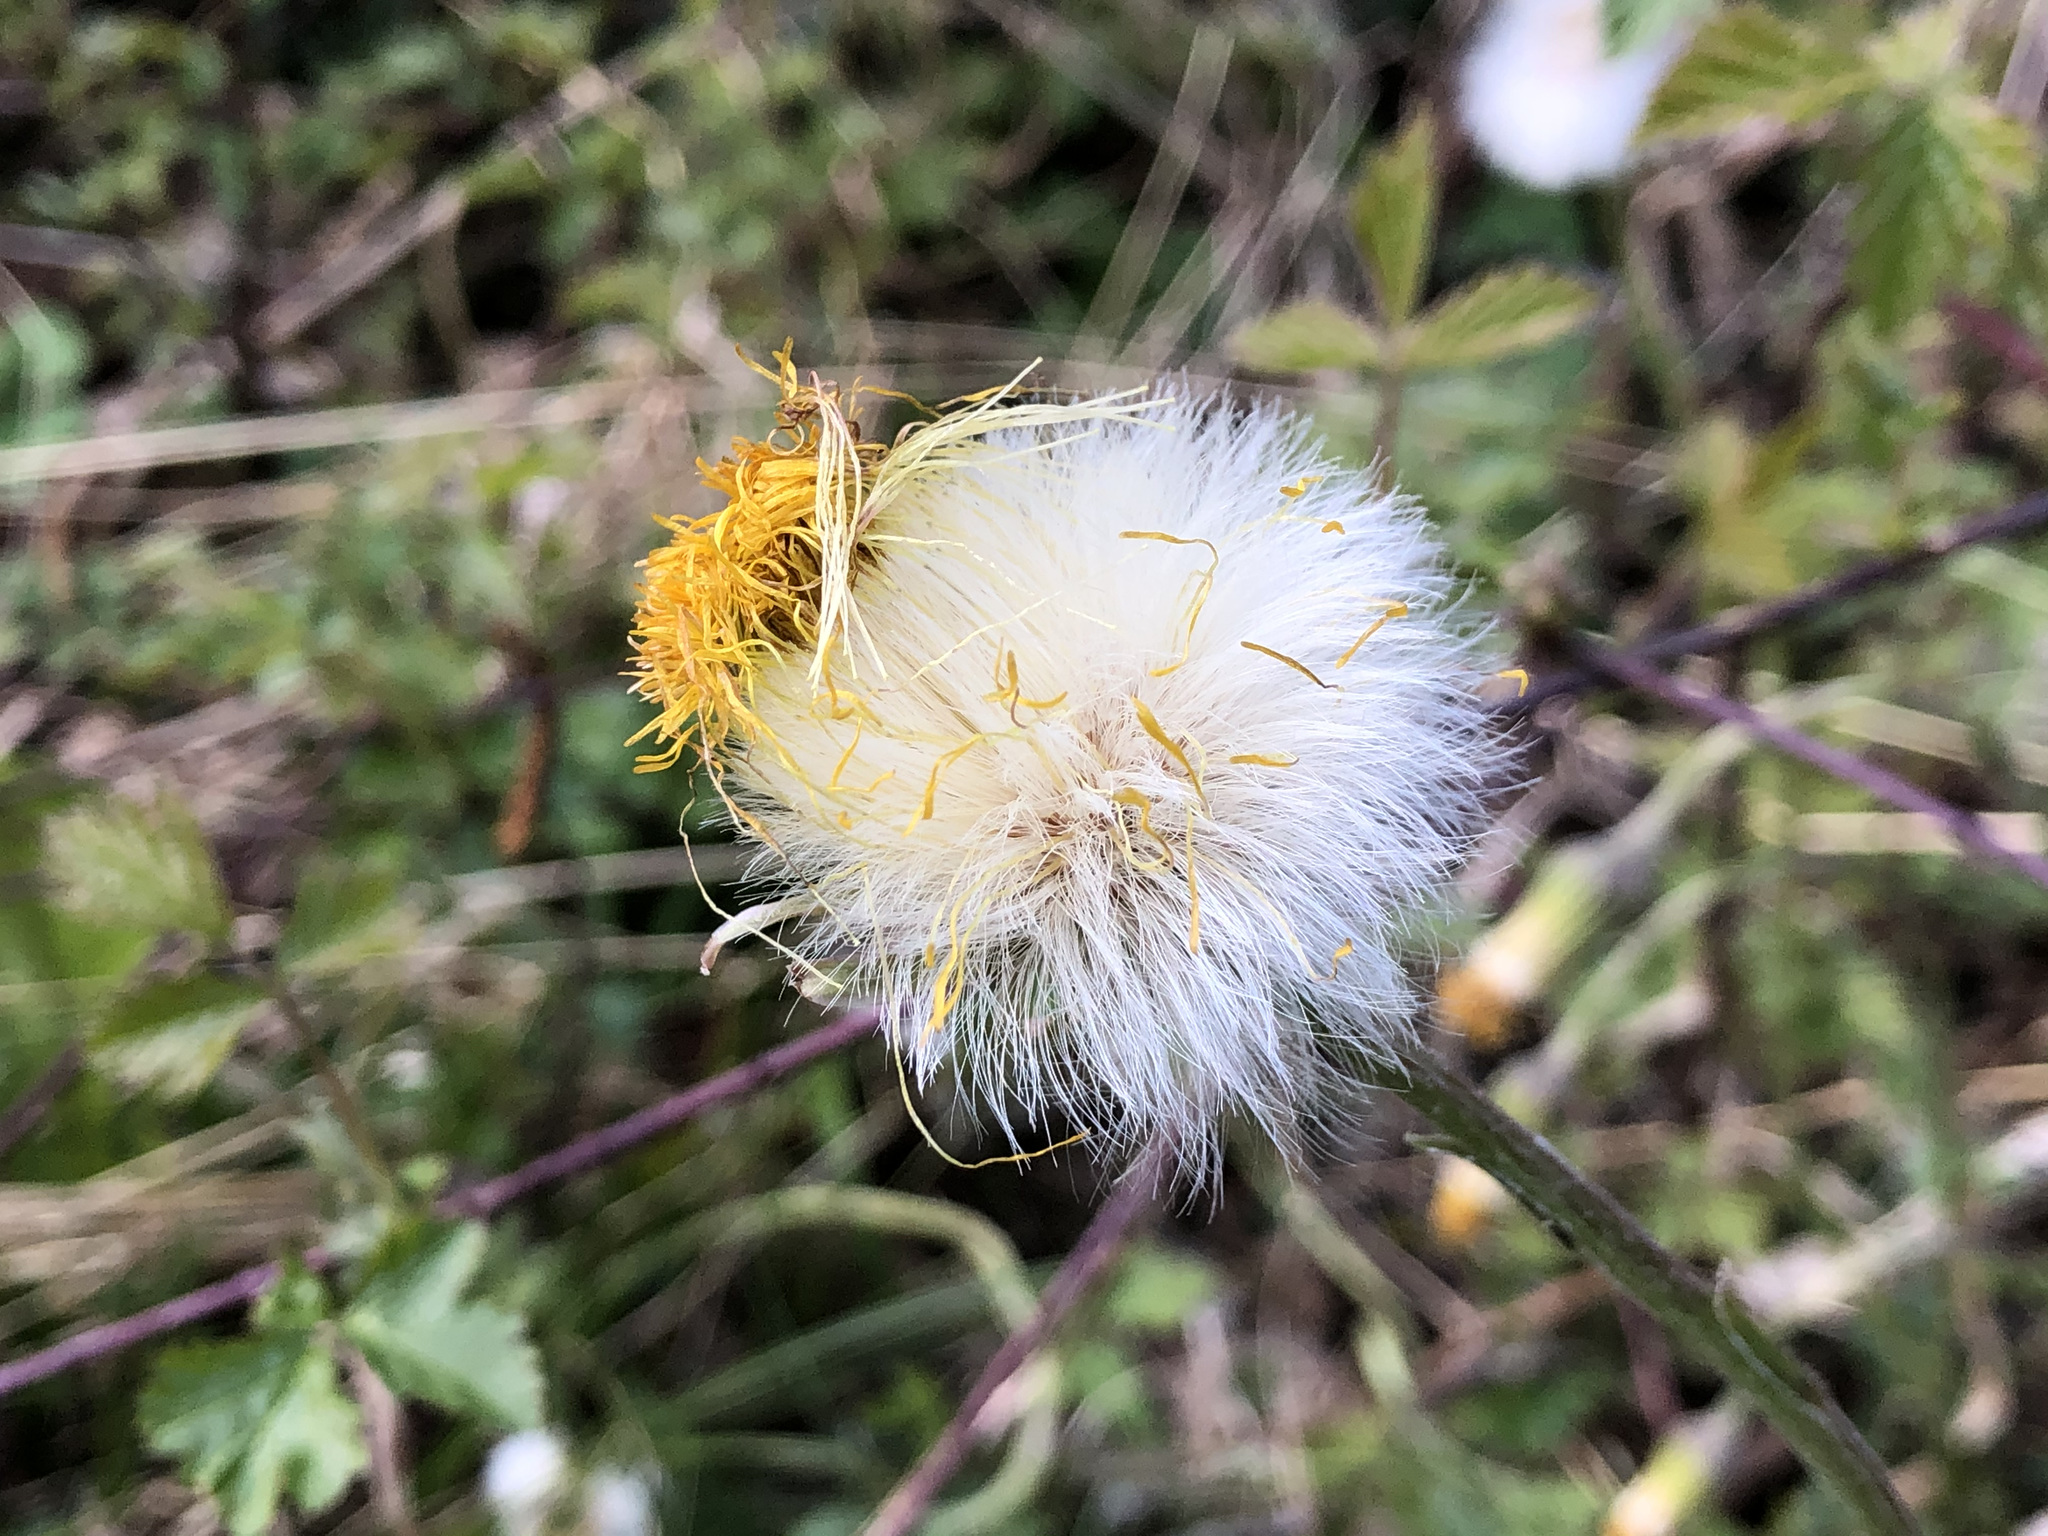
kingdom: Plantae
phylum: Tracheophyta
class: Magnoliopsida
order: Asterales
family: Asteraceae
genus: Tussilago
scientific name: Tussilago farfara
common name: Coltsfoot
